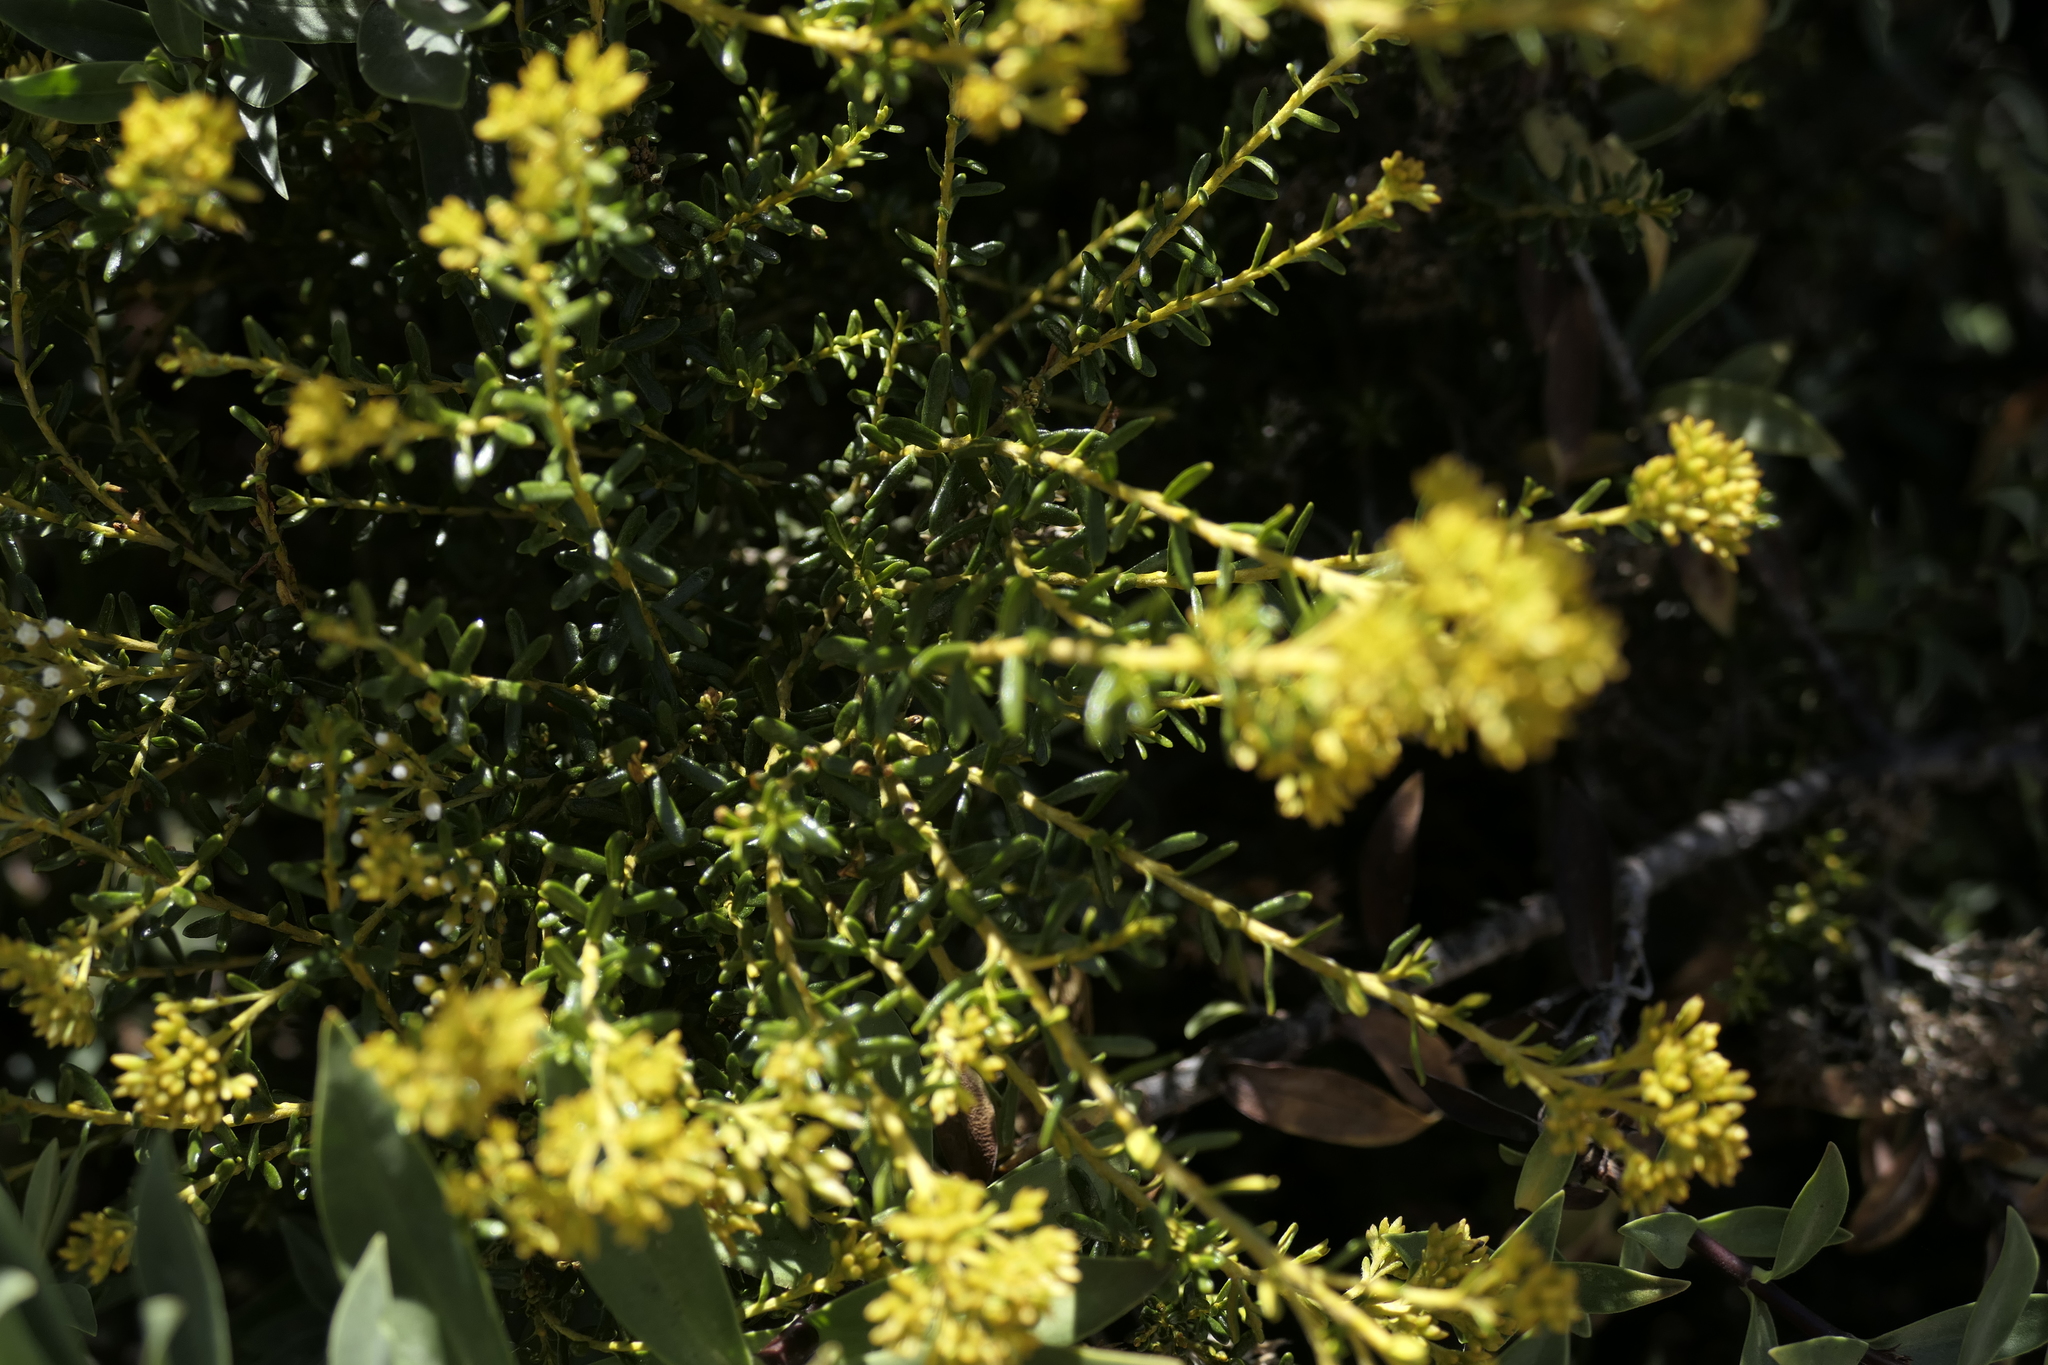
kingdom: Plantae
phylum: Tracheophyta
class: Magnoliopsida
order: Asterales
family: Asteraceae
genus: Ozothamnus
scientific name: Ozothamnus leptophyllus
